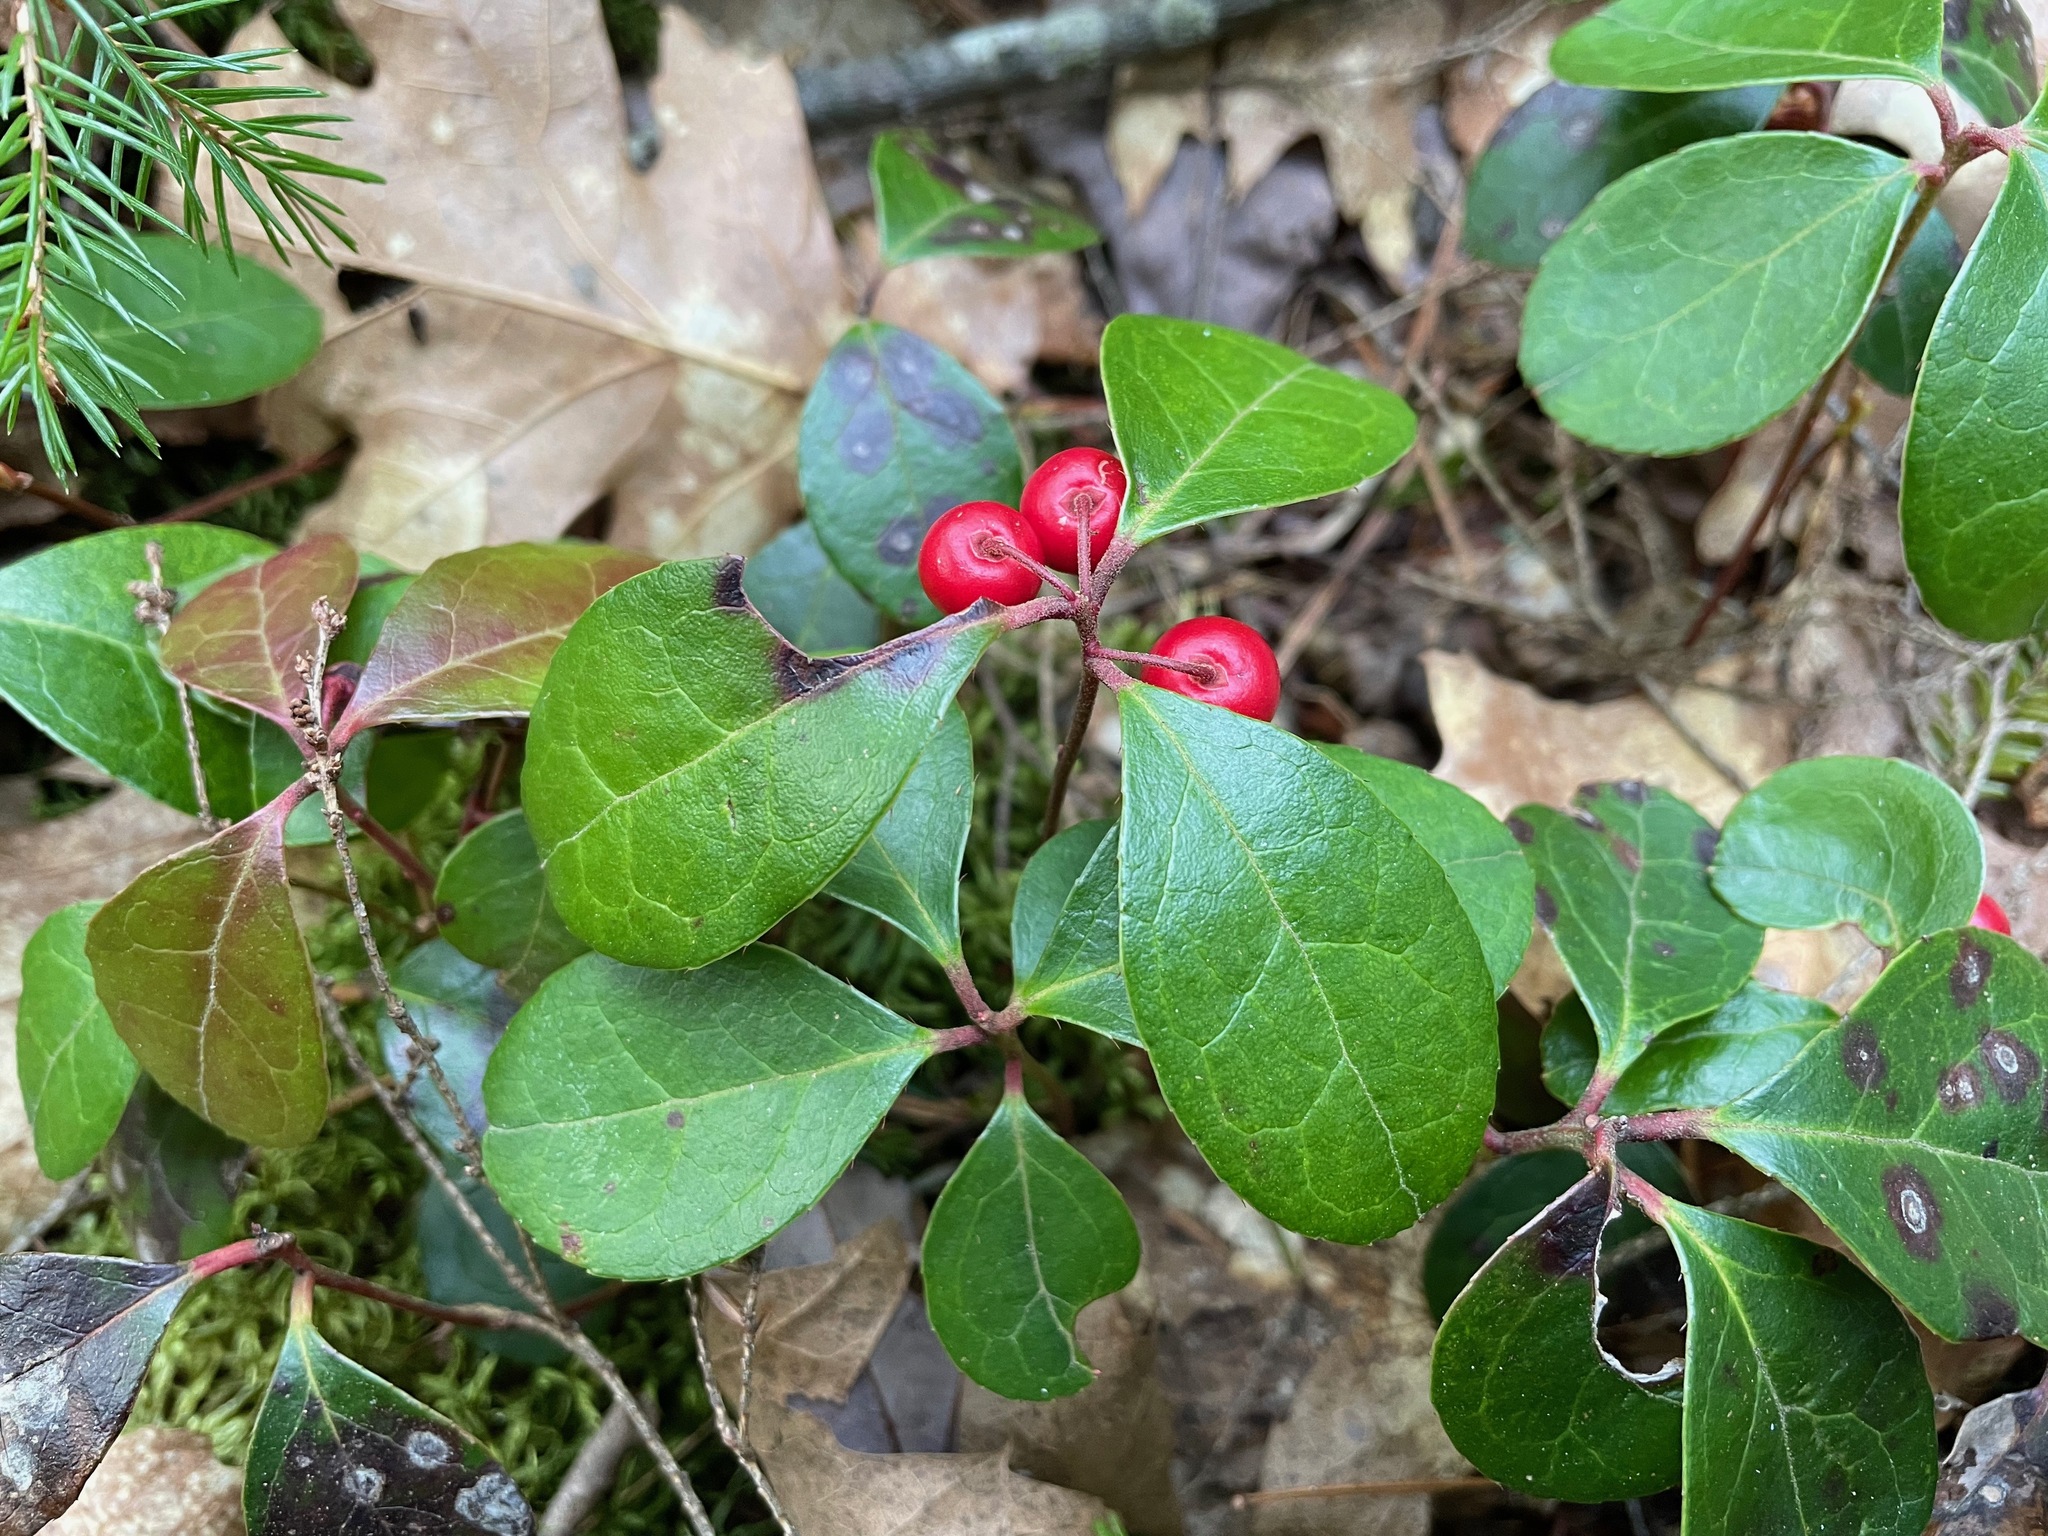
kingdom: Plantae
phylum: Tracheophyta
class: Magnoliopsida
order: Ericales
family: Ericaceae
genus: Gaultheria
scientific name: Gaultheria procumbens
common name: Checkerberry
